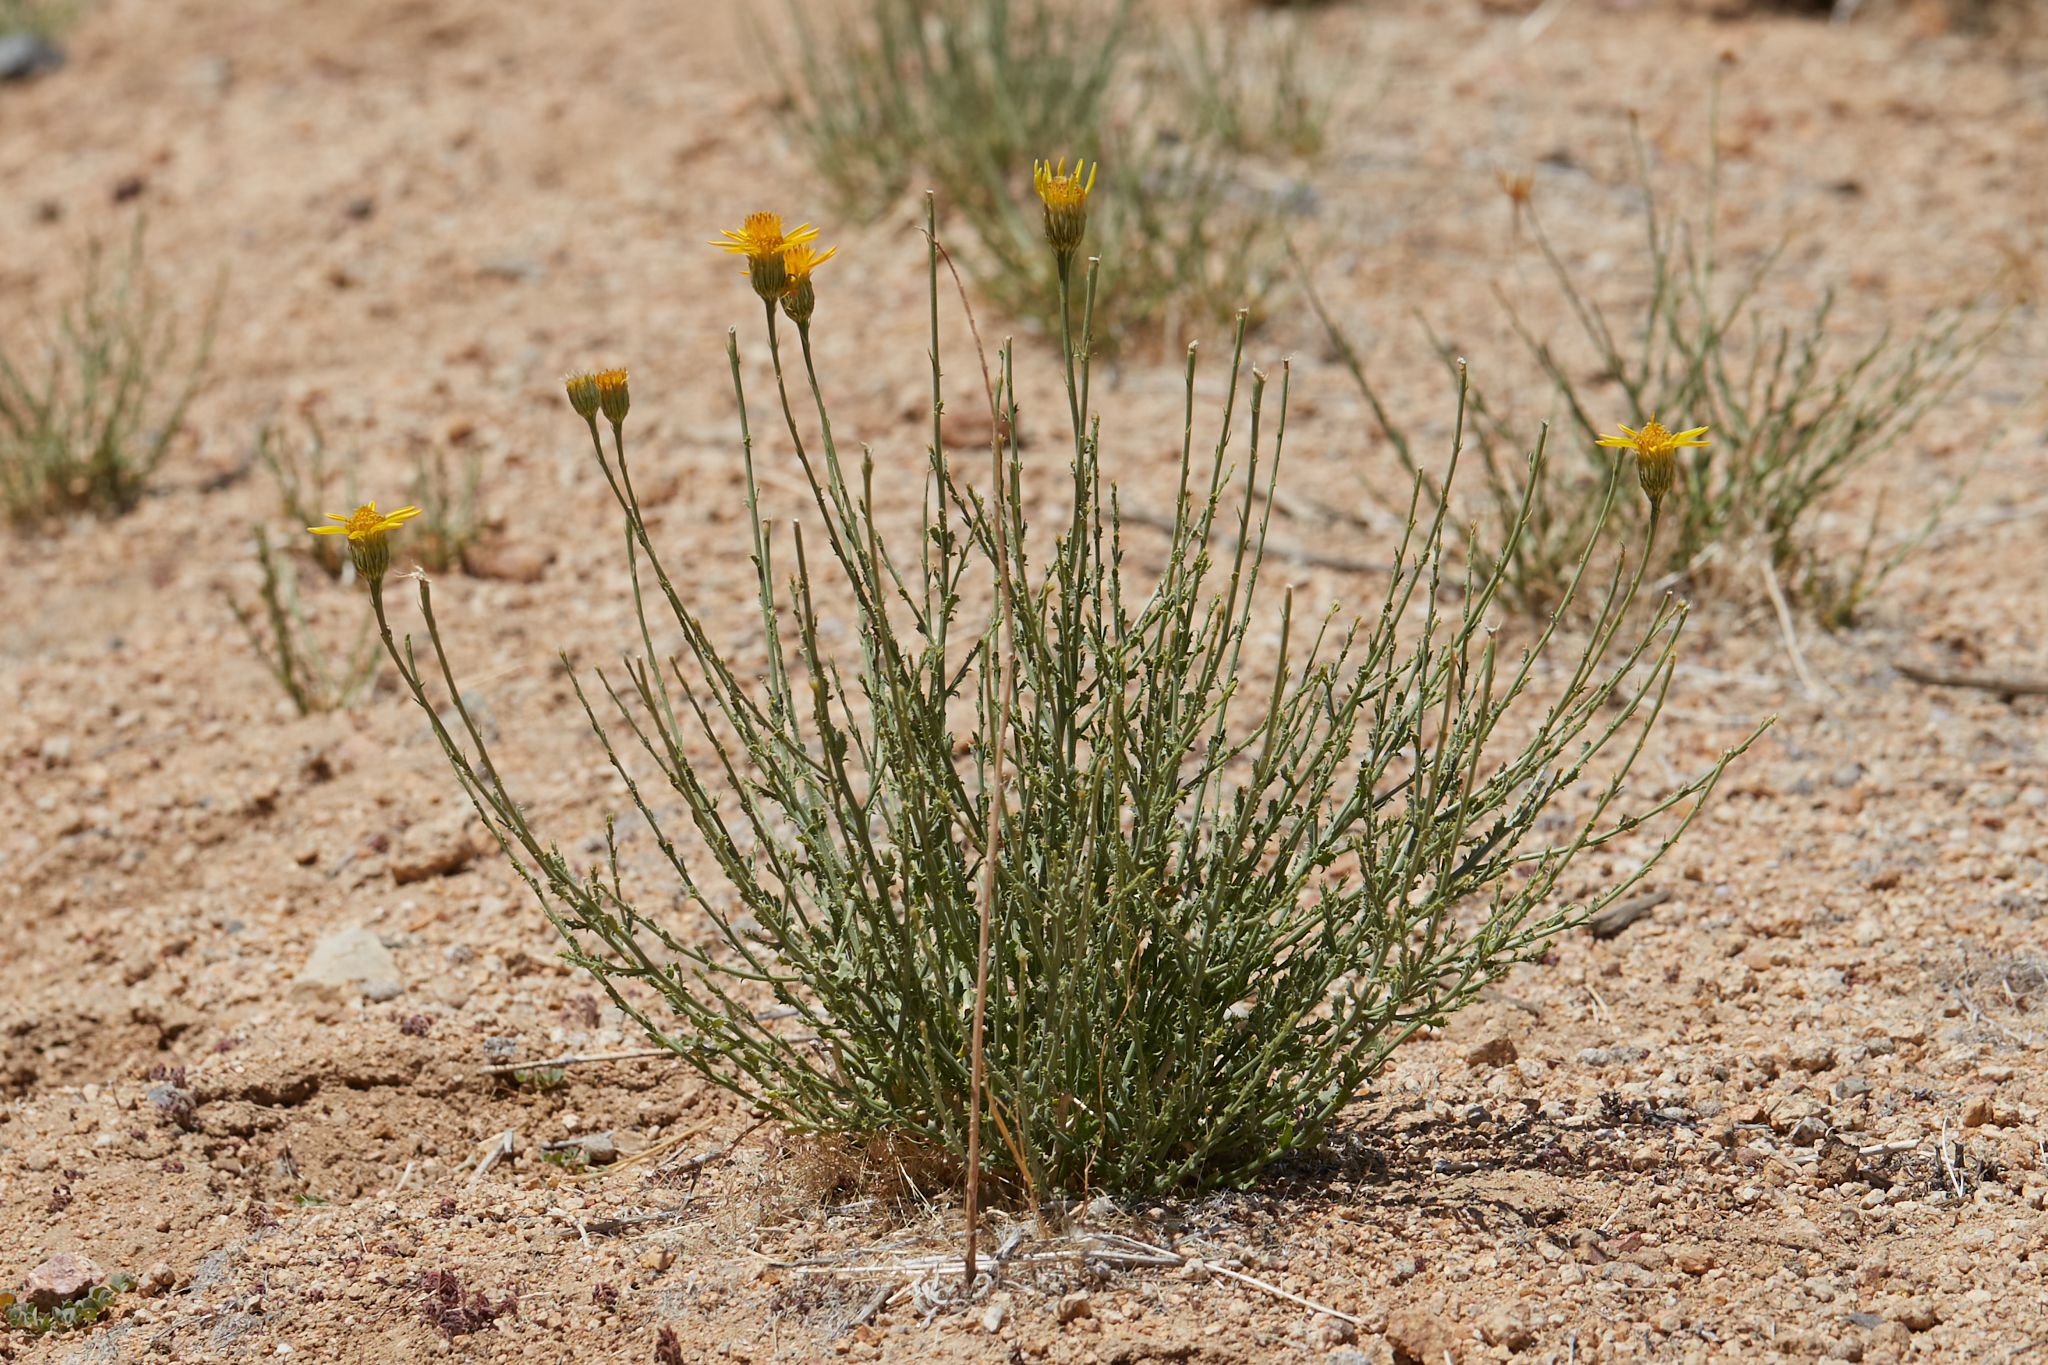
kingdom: Plantae
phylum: Tracheophyta
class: Magnoliopsida
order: Asterales
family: Asteraceae
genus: Adenophyllum
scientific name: Adenophyllum cooperi
